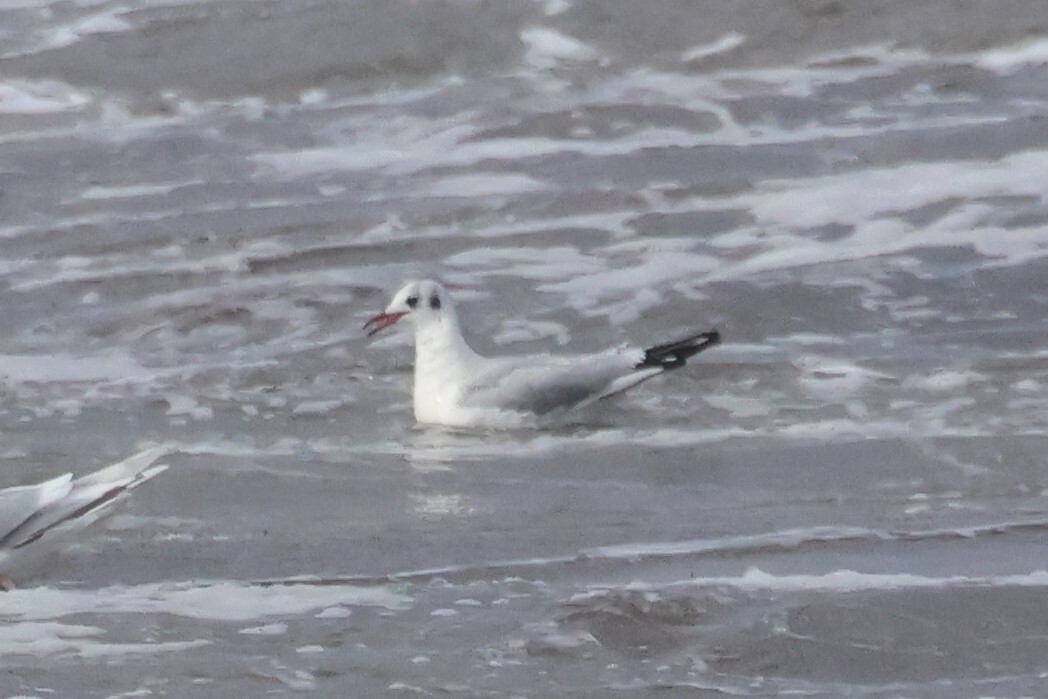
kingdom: Animalia
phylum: Chordata
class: Aves
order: Charadriiformes
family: Laridae
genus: Chroicocephalus
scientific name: Chroicocephalus ridibundus
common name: Black-headed gull
